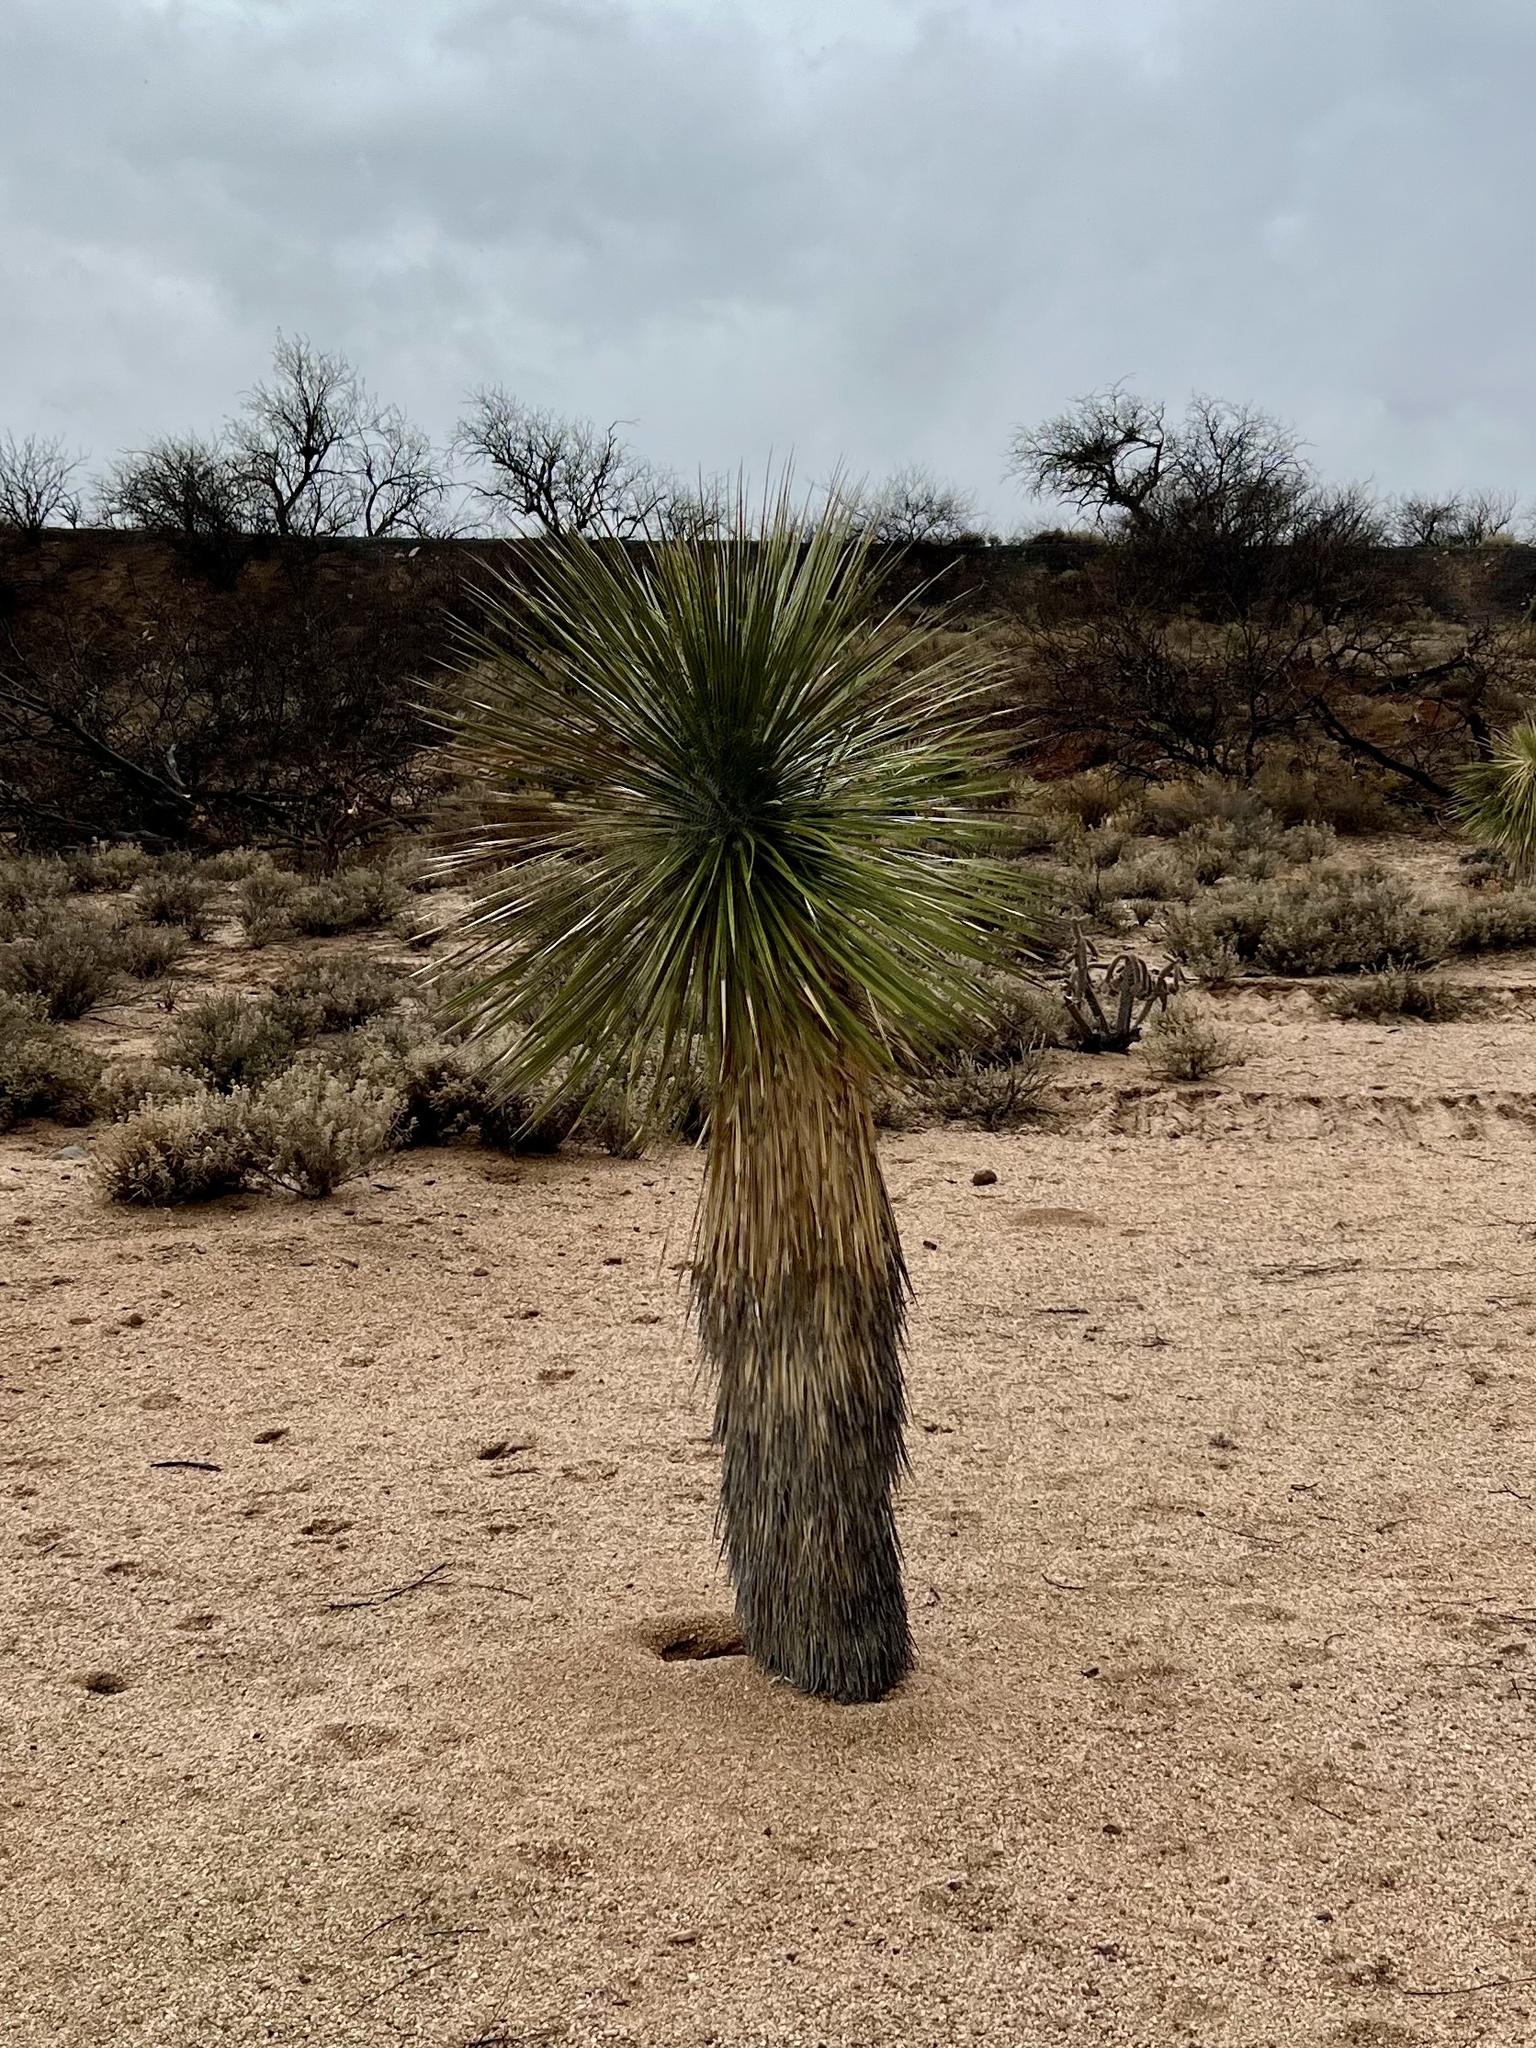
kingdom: Plantae
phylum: Tracheophyta
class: Liliopsida
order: Asparagales
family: Asparagaceae
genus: Yucca
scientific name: Yucca elata
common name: Palmella
